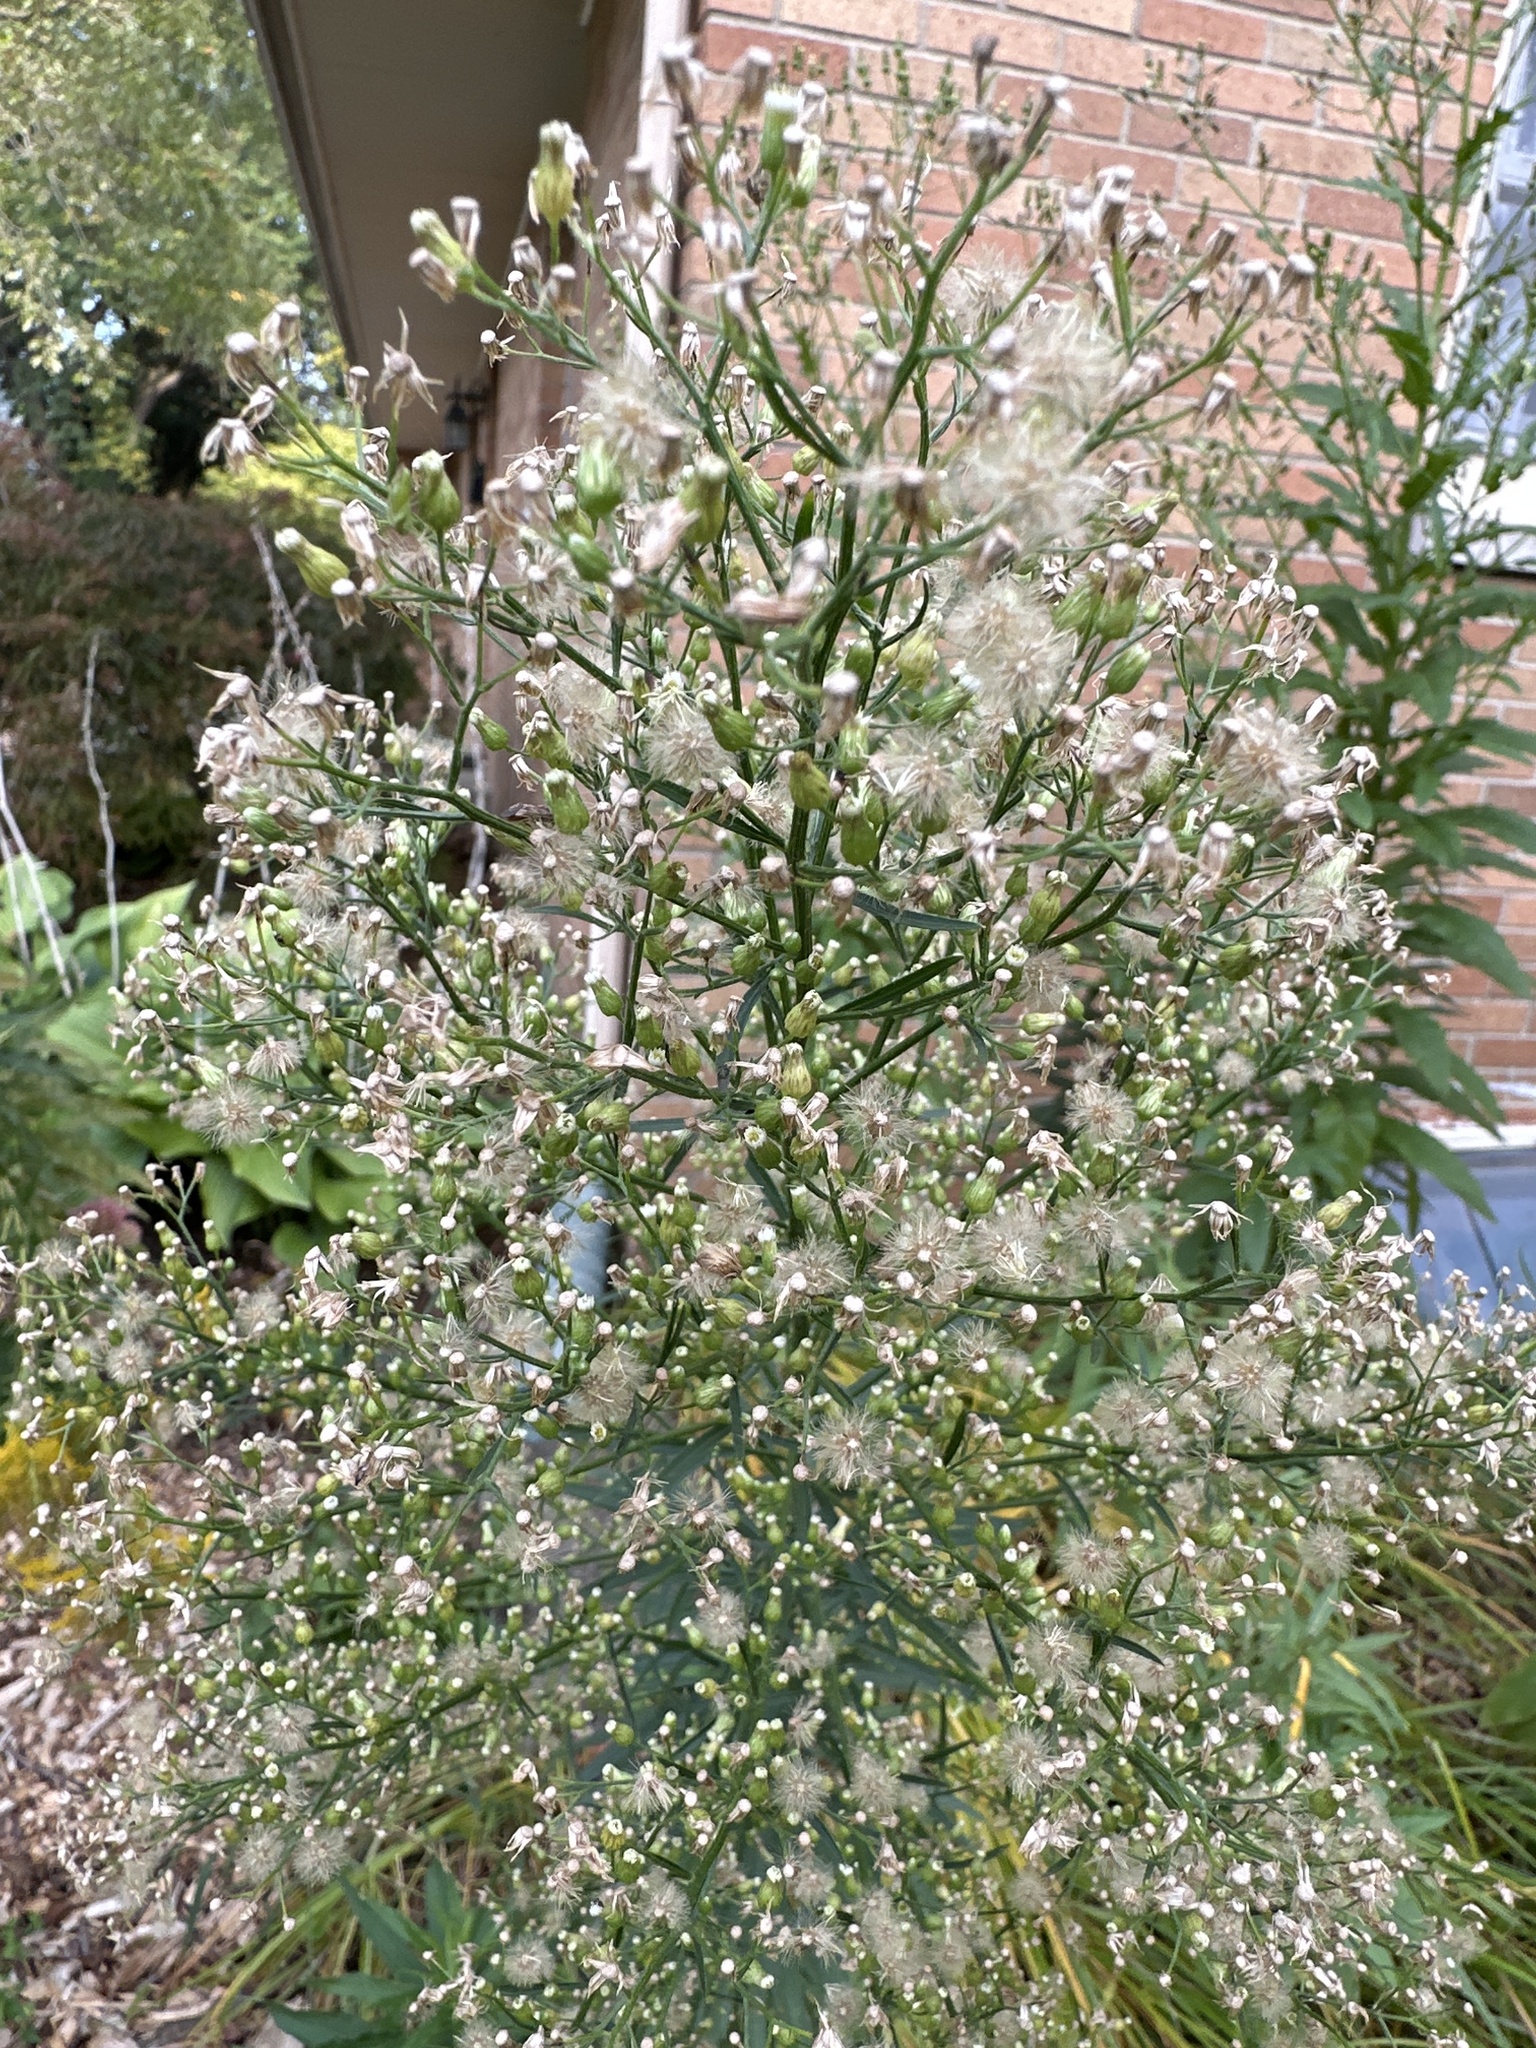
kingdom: Plantae
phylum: Tracheophyta
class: Magnoliopsida
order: Asterales
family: Asteraceae
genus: Erigeron
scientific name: Erigeron canadensis
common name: Canadian fleabane
